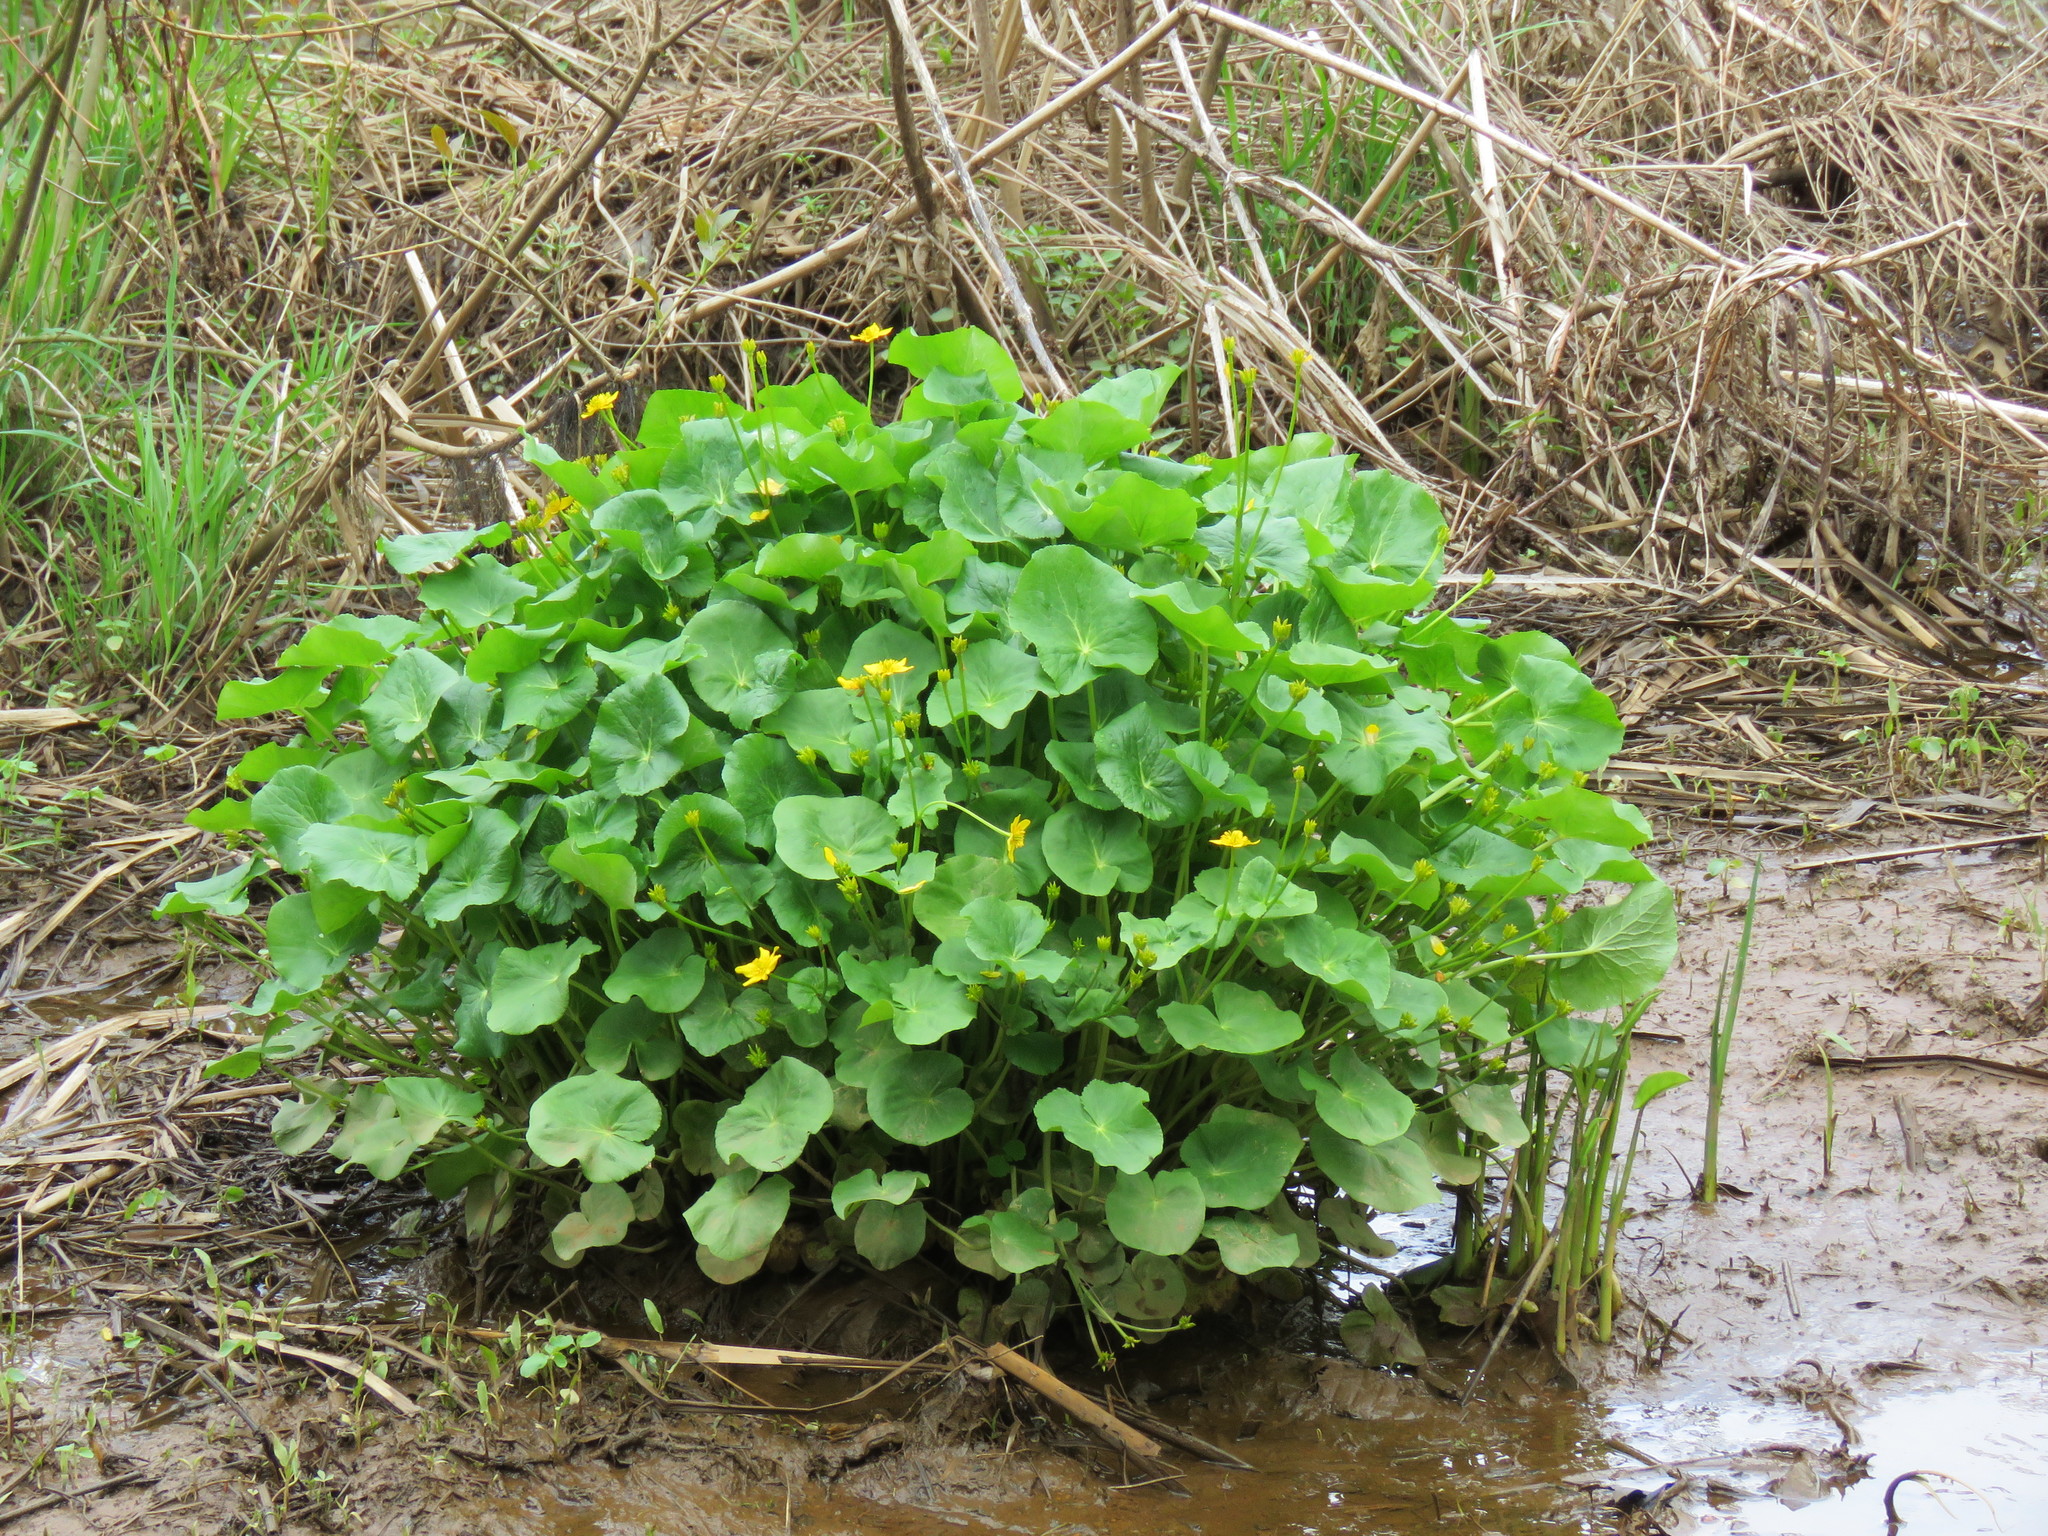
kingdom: Plantae
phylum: Tracheophyta
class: Magnoliopsida
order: Ranunculales
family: Ranunculaceae
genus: Caltha
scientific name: Caltha palustris
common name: Marsh marigold
